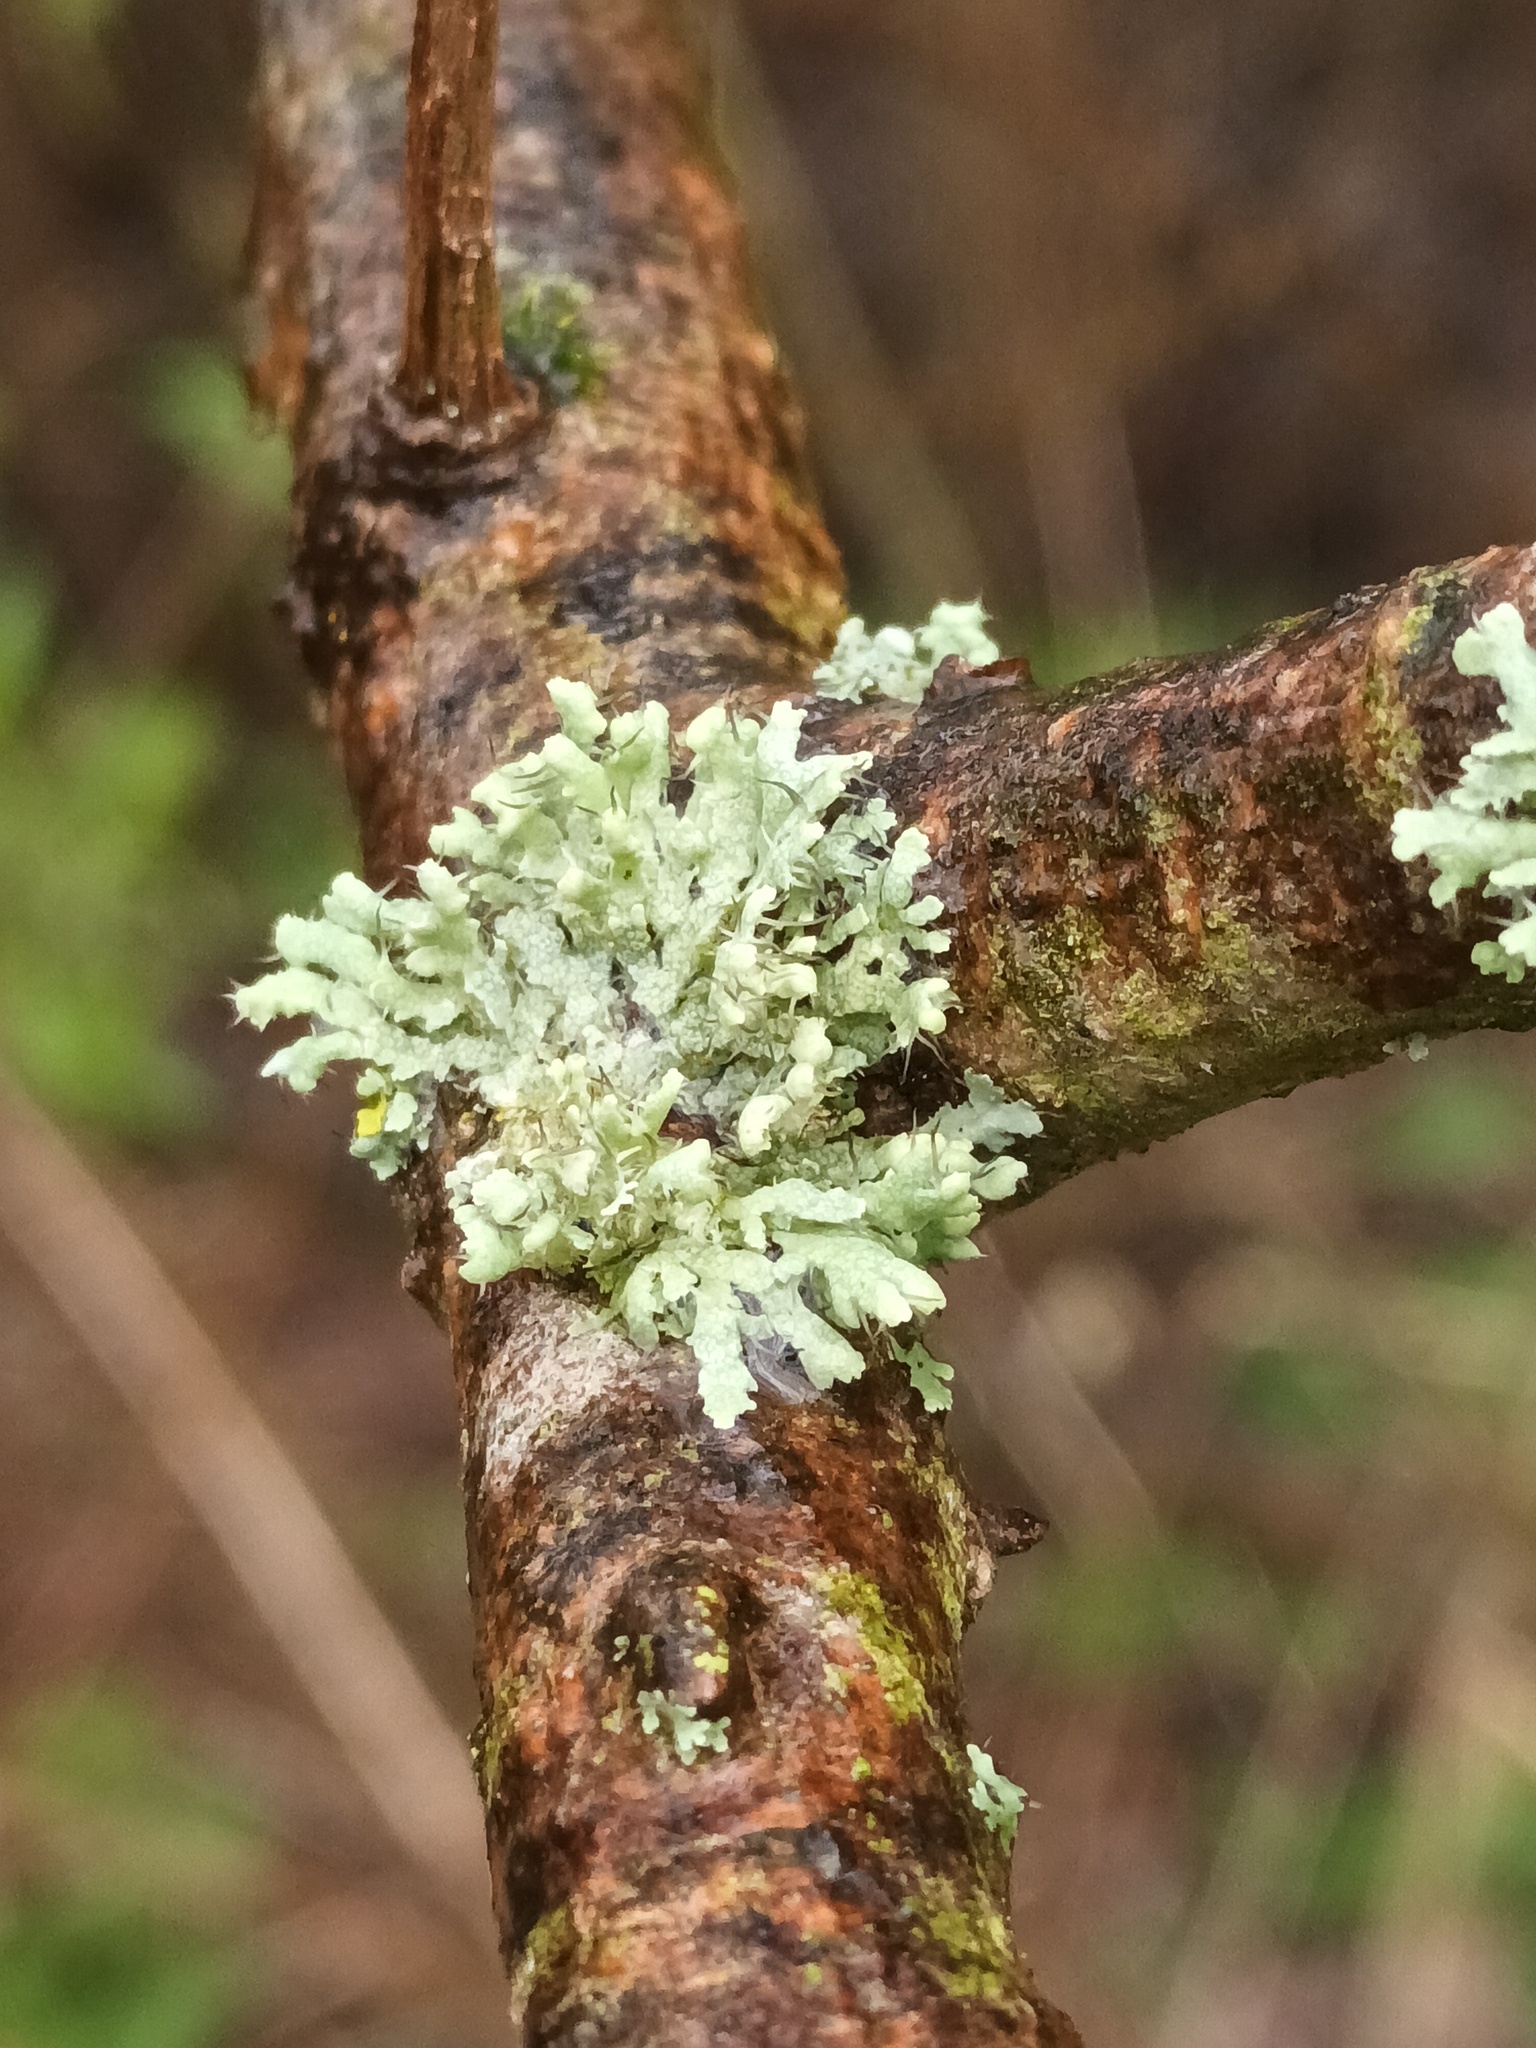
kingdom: Fungi
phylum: Ascomycota
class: Lecanoromycetes
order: Caliciales
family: Physciaceae
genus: Physcia
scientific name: Physcia adscendens
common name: Hooded rosette lichen
